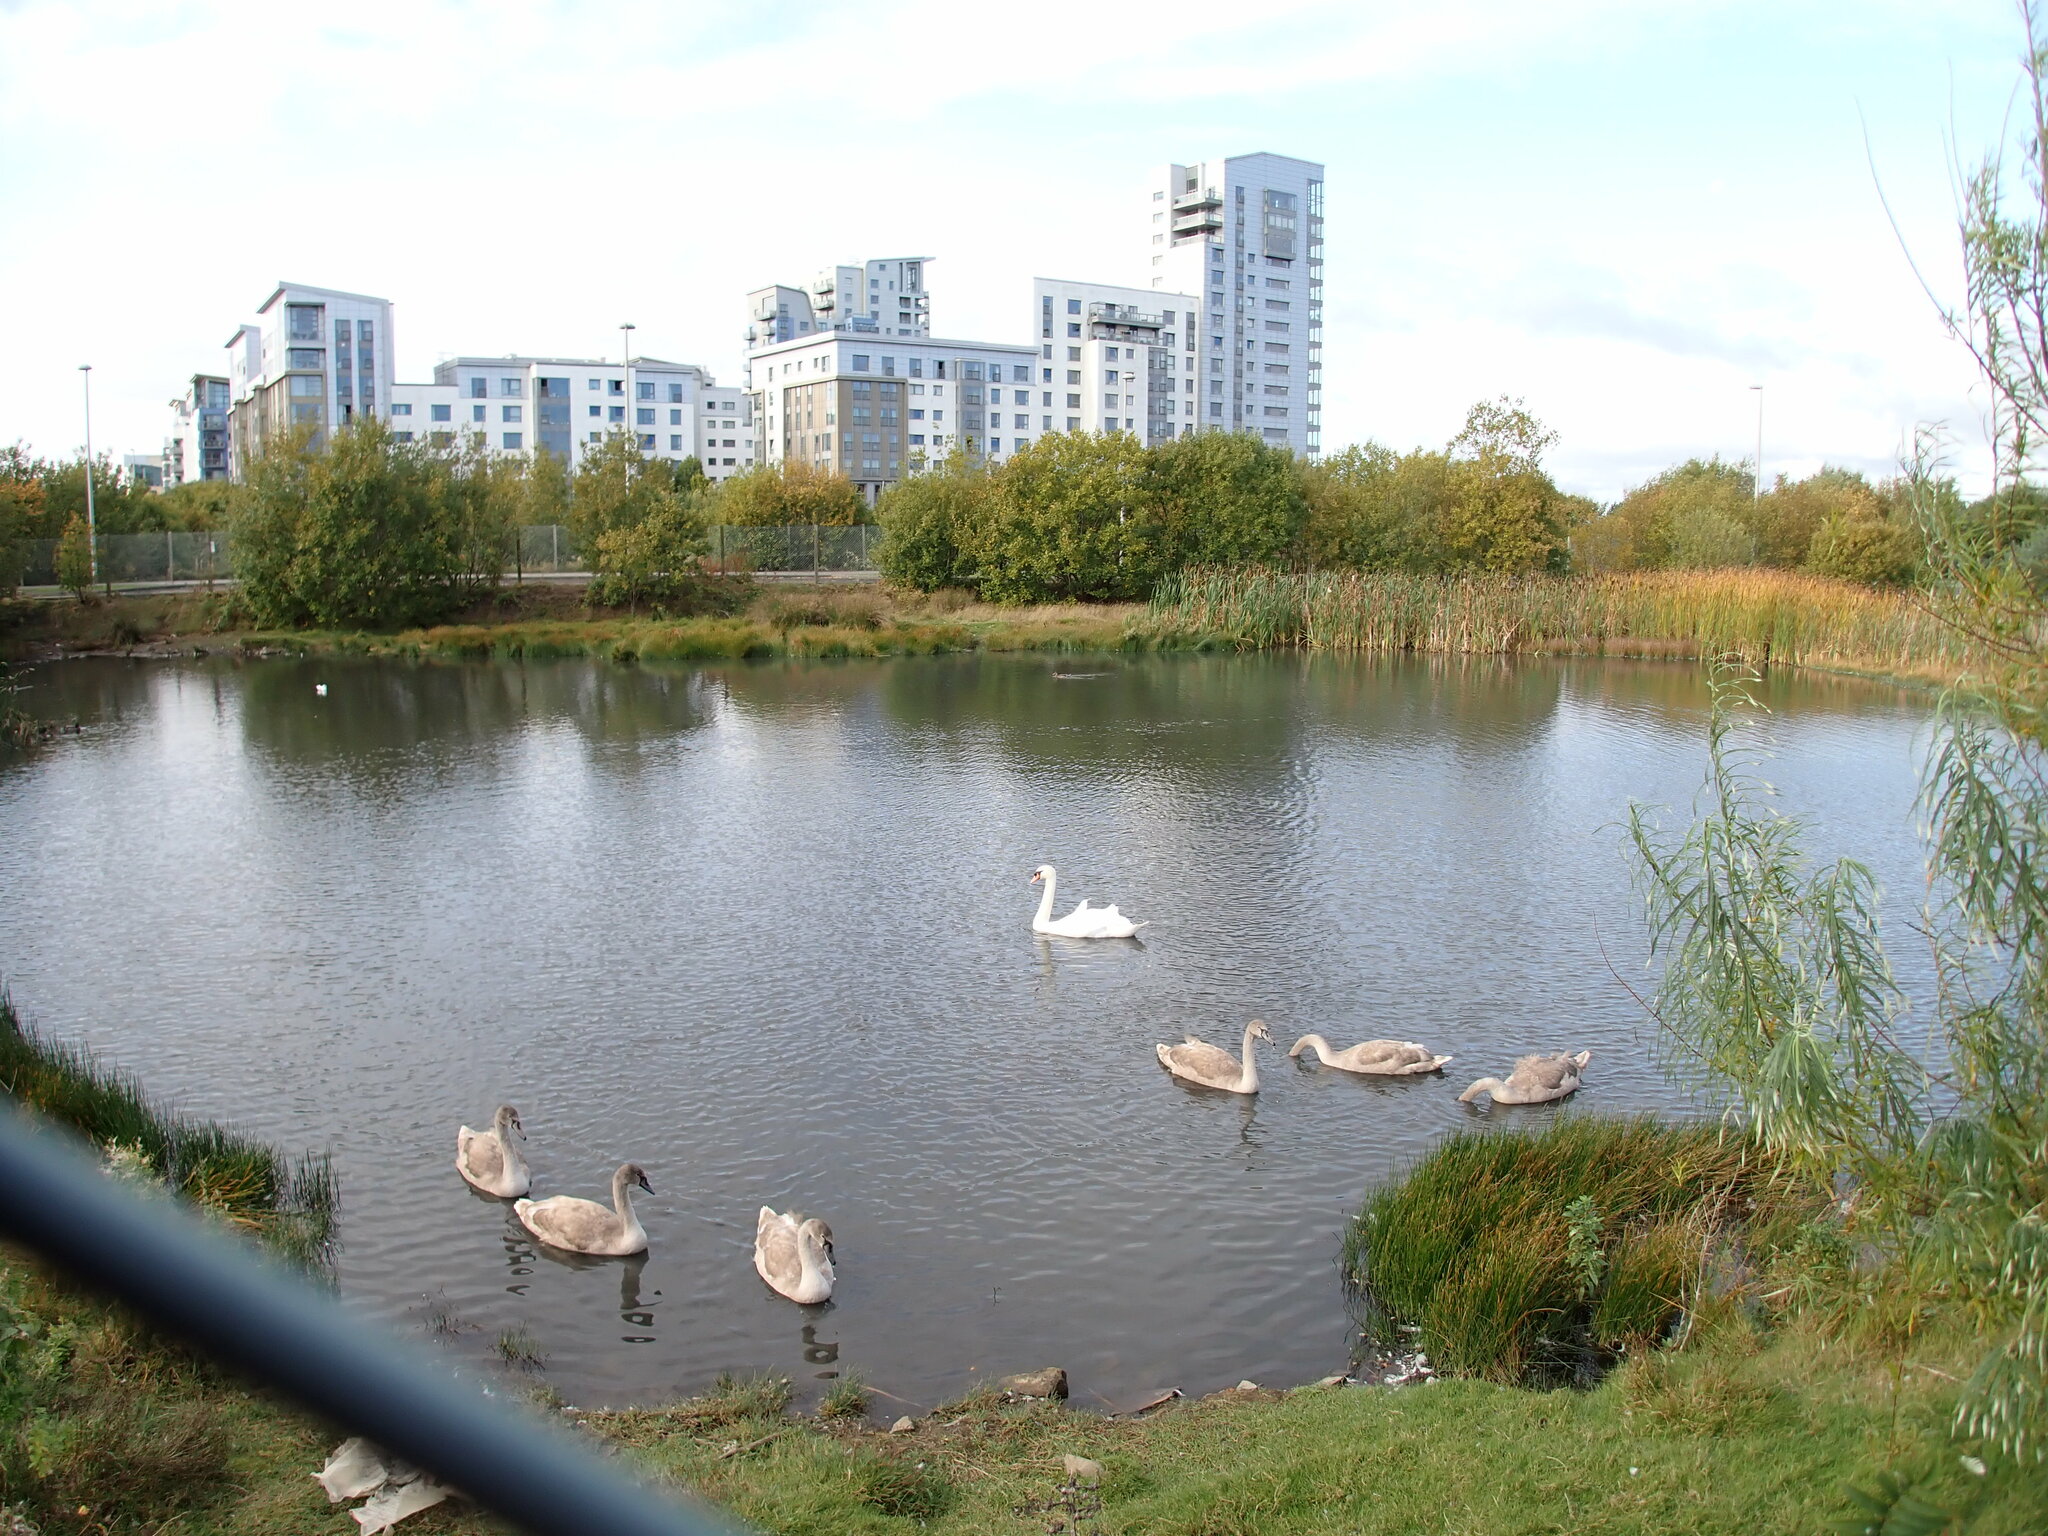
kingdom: Animalia
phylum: Chordata
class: Aves
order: Anseriformes
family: Anatidae
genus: Cygnus
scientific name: Cygnus olor
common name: Mute swan
